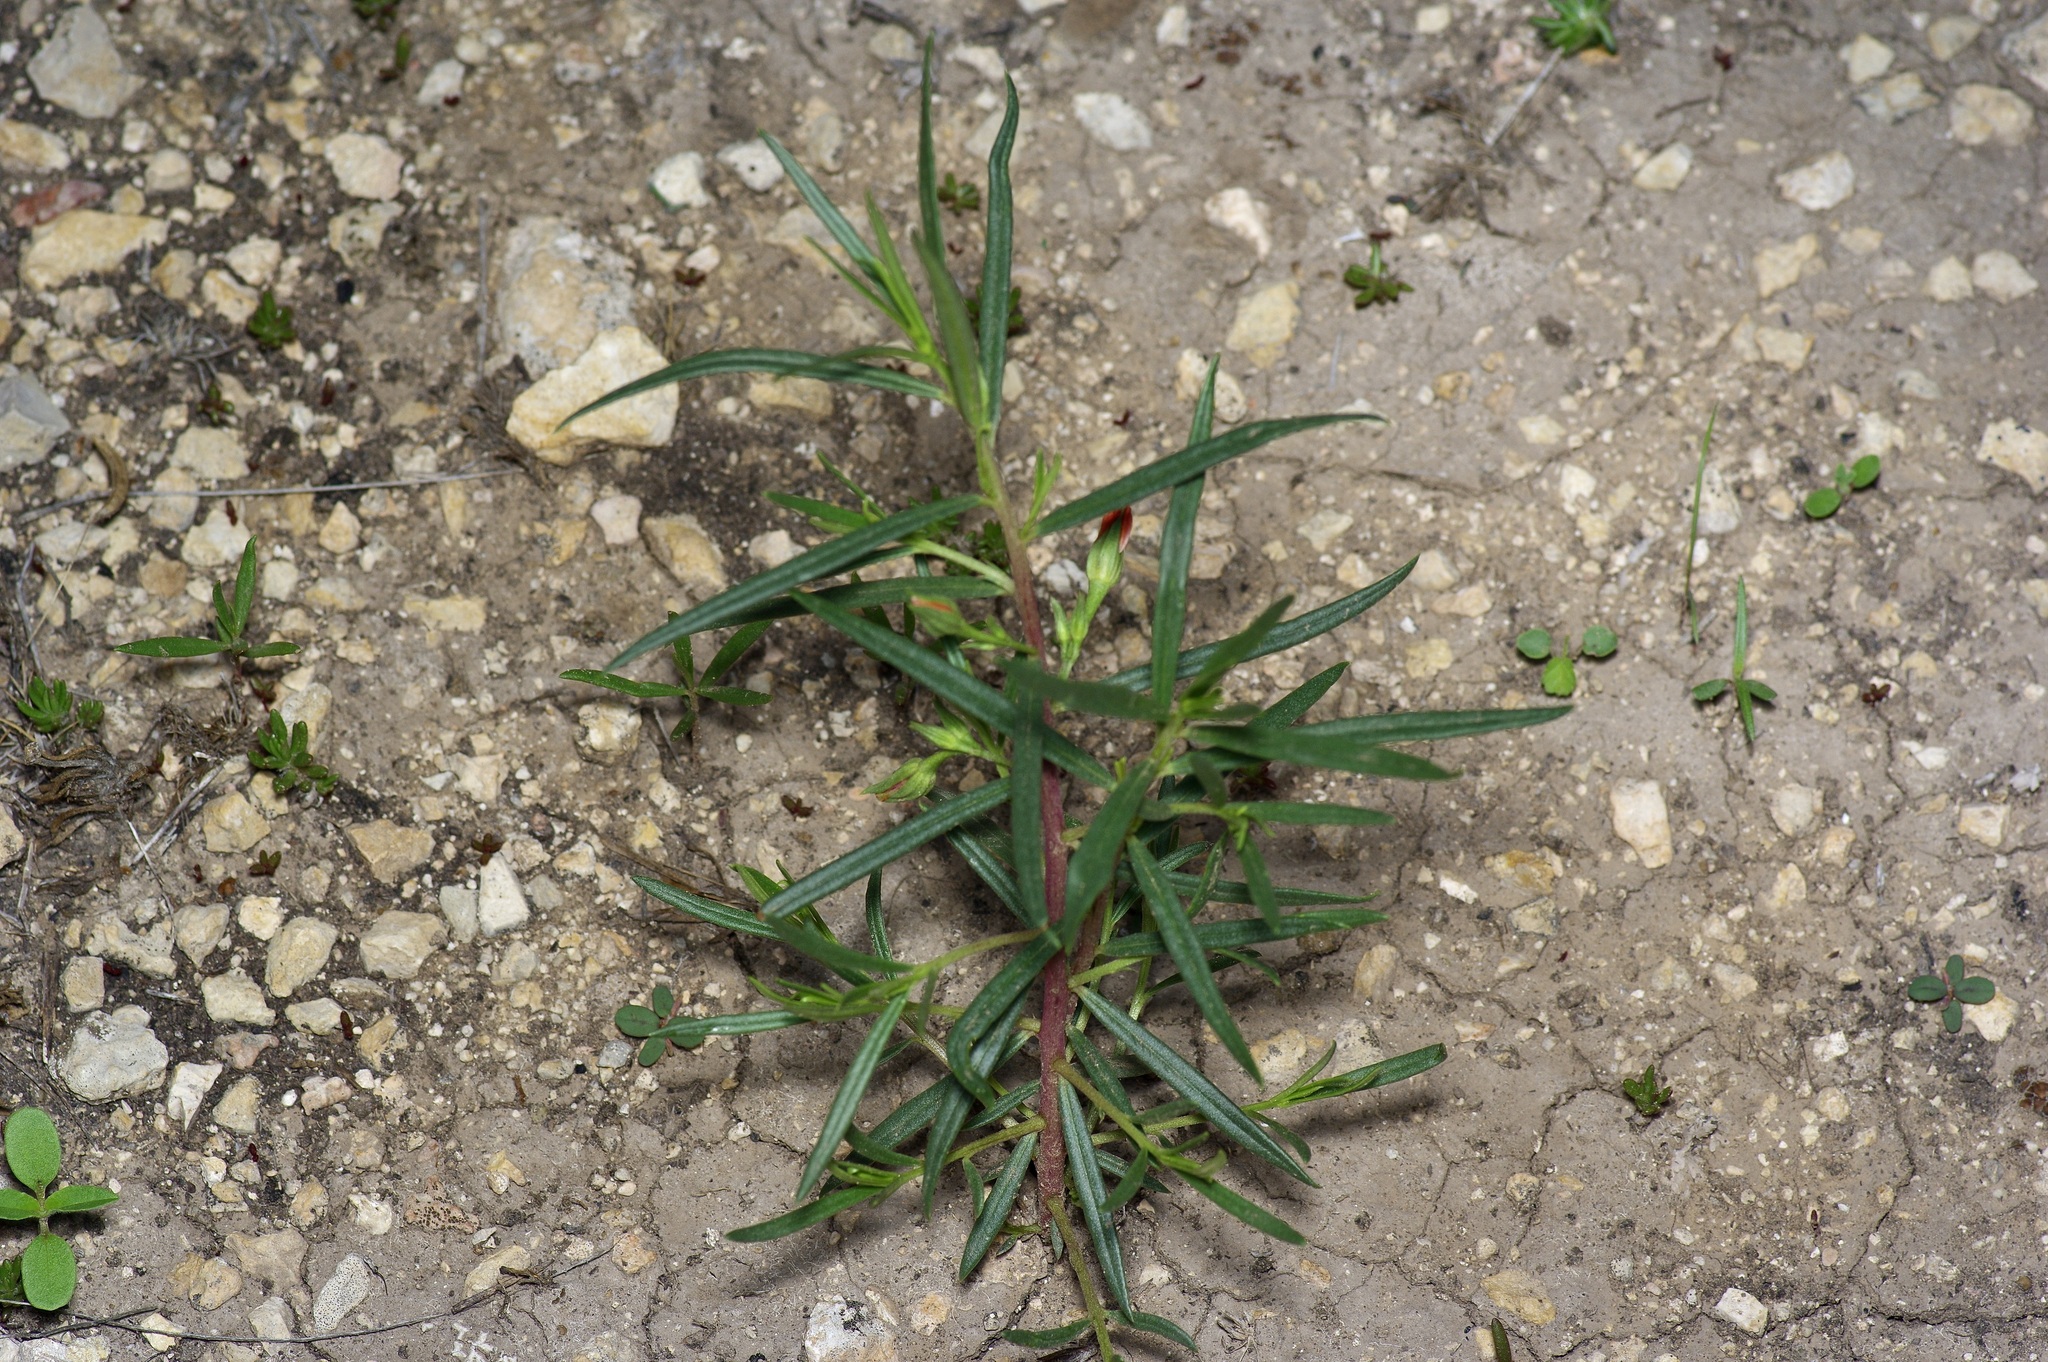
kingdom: Plantae
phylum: Tracheophyta
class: Magnoliopsida
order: Caryophyllales
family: Montiaceae
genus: Phemeranthus
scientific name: Phemeranthus aurantiacus
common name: Orange fameflower
